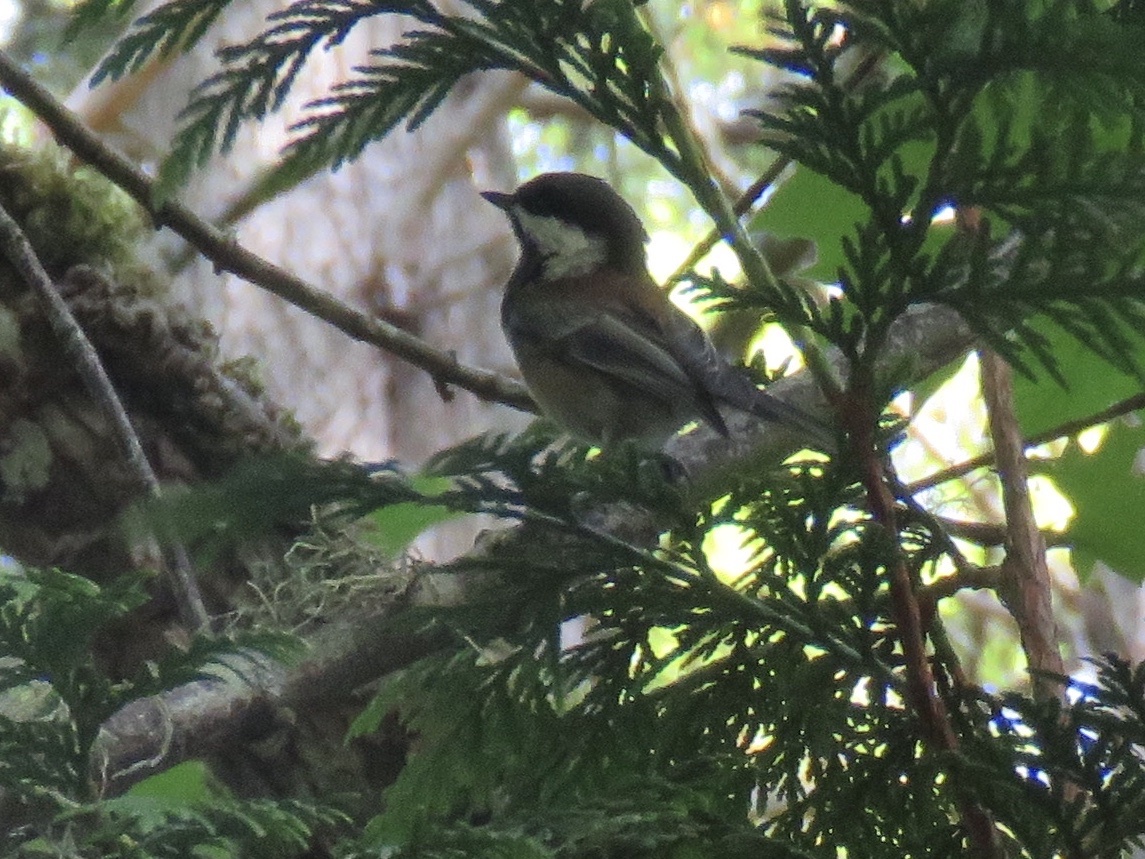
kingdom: Animalia
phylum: Chordata
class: Aves
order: Passeriformes
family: Paridae
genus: Poecile
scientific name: Poecile rufescens
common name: Chestnut-backed chickadee
